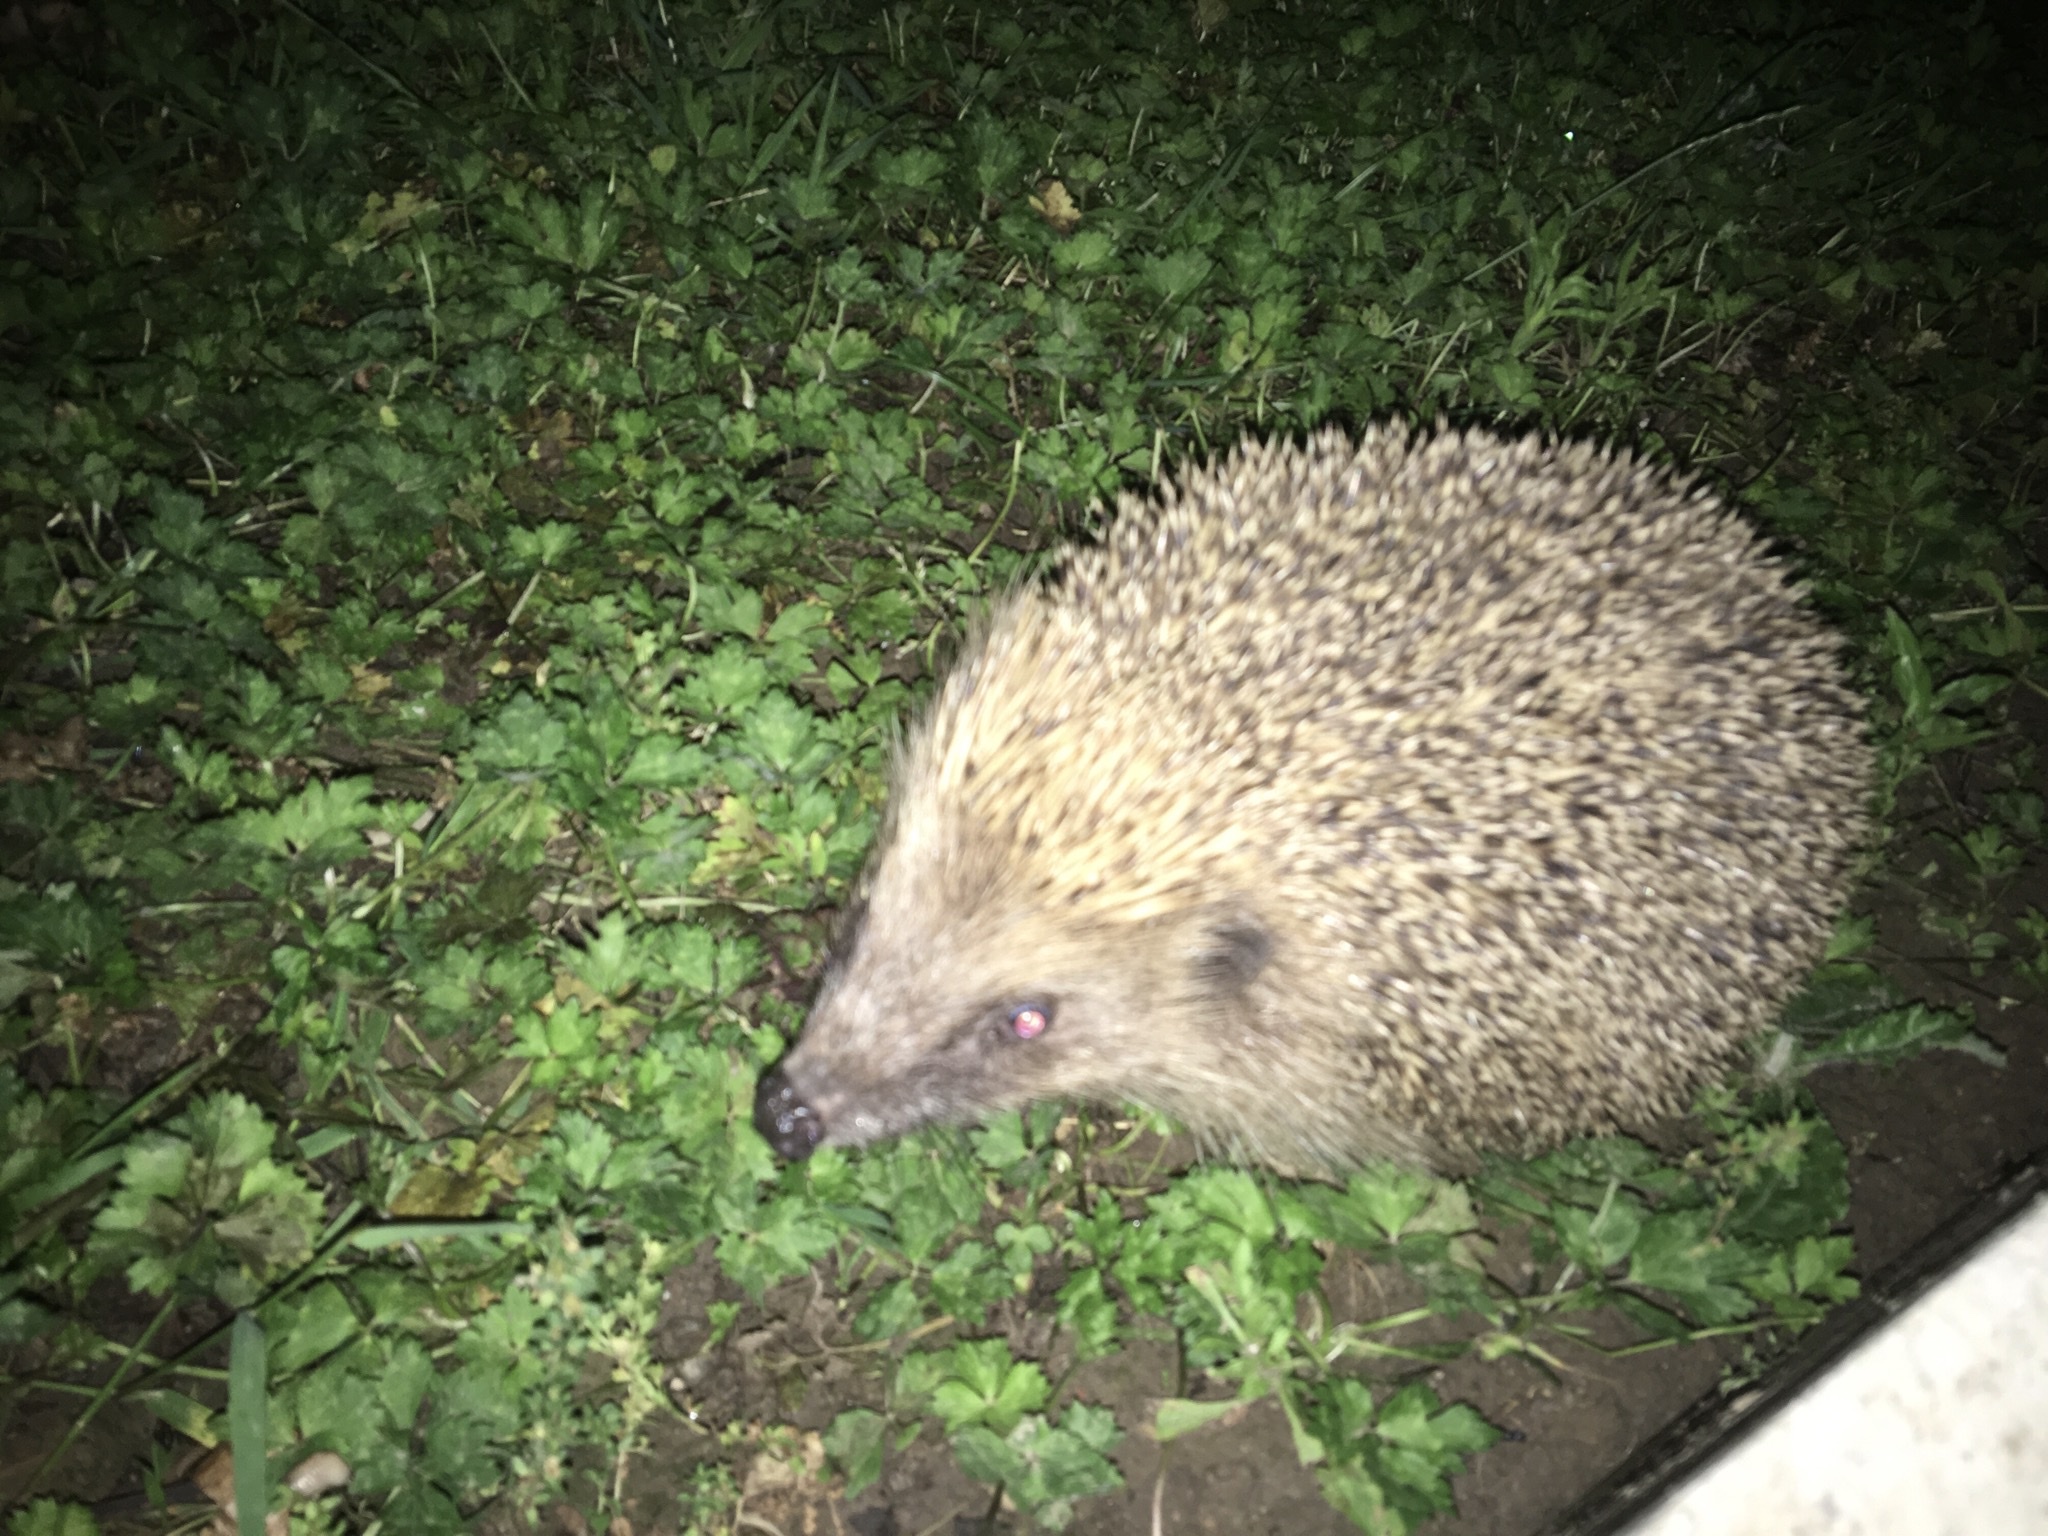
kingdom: Animalia
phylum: Chordata
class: Mammalia
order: Erinaceomorpha
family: Erinaceidae
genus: Erinaceus
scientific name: Erinaceus europaeus
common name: West european hedgehog
